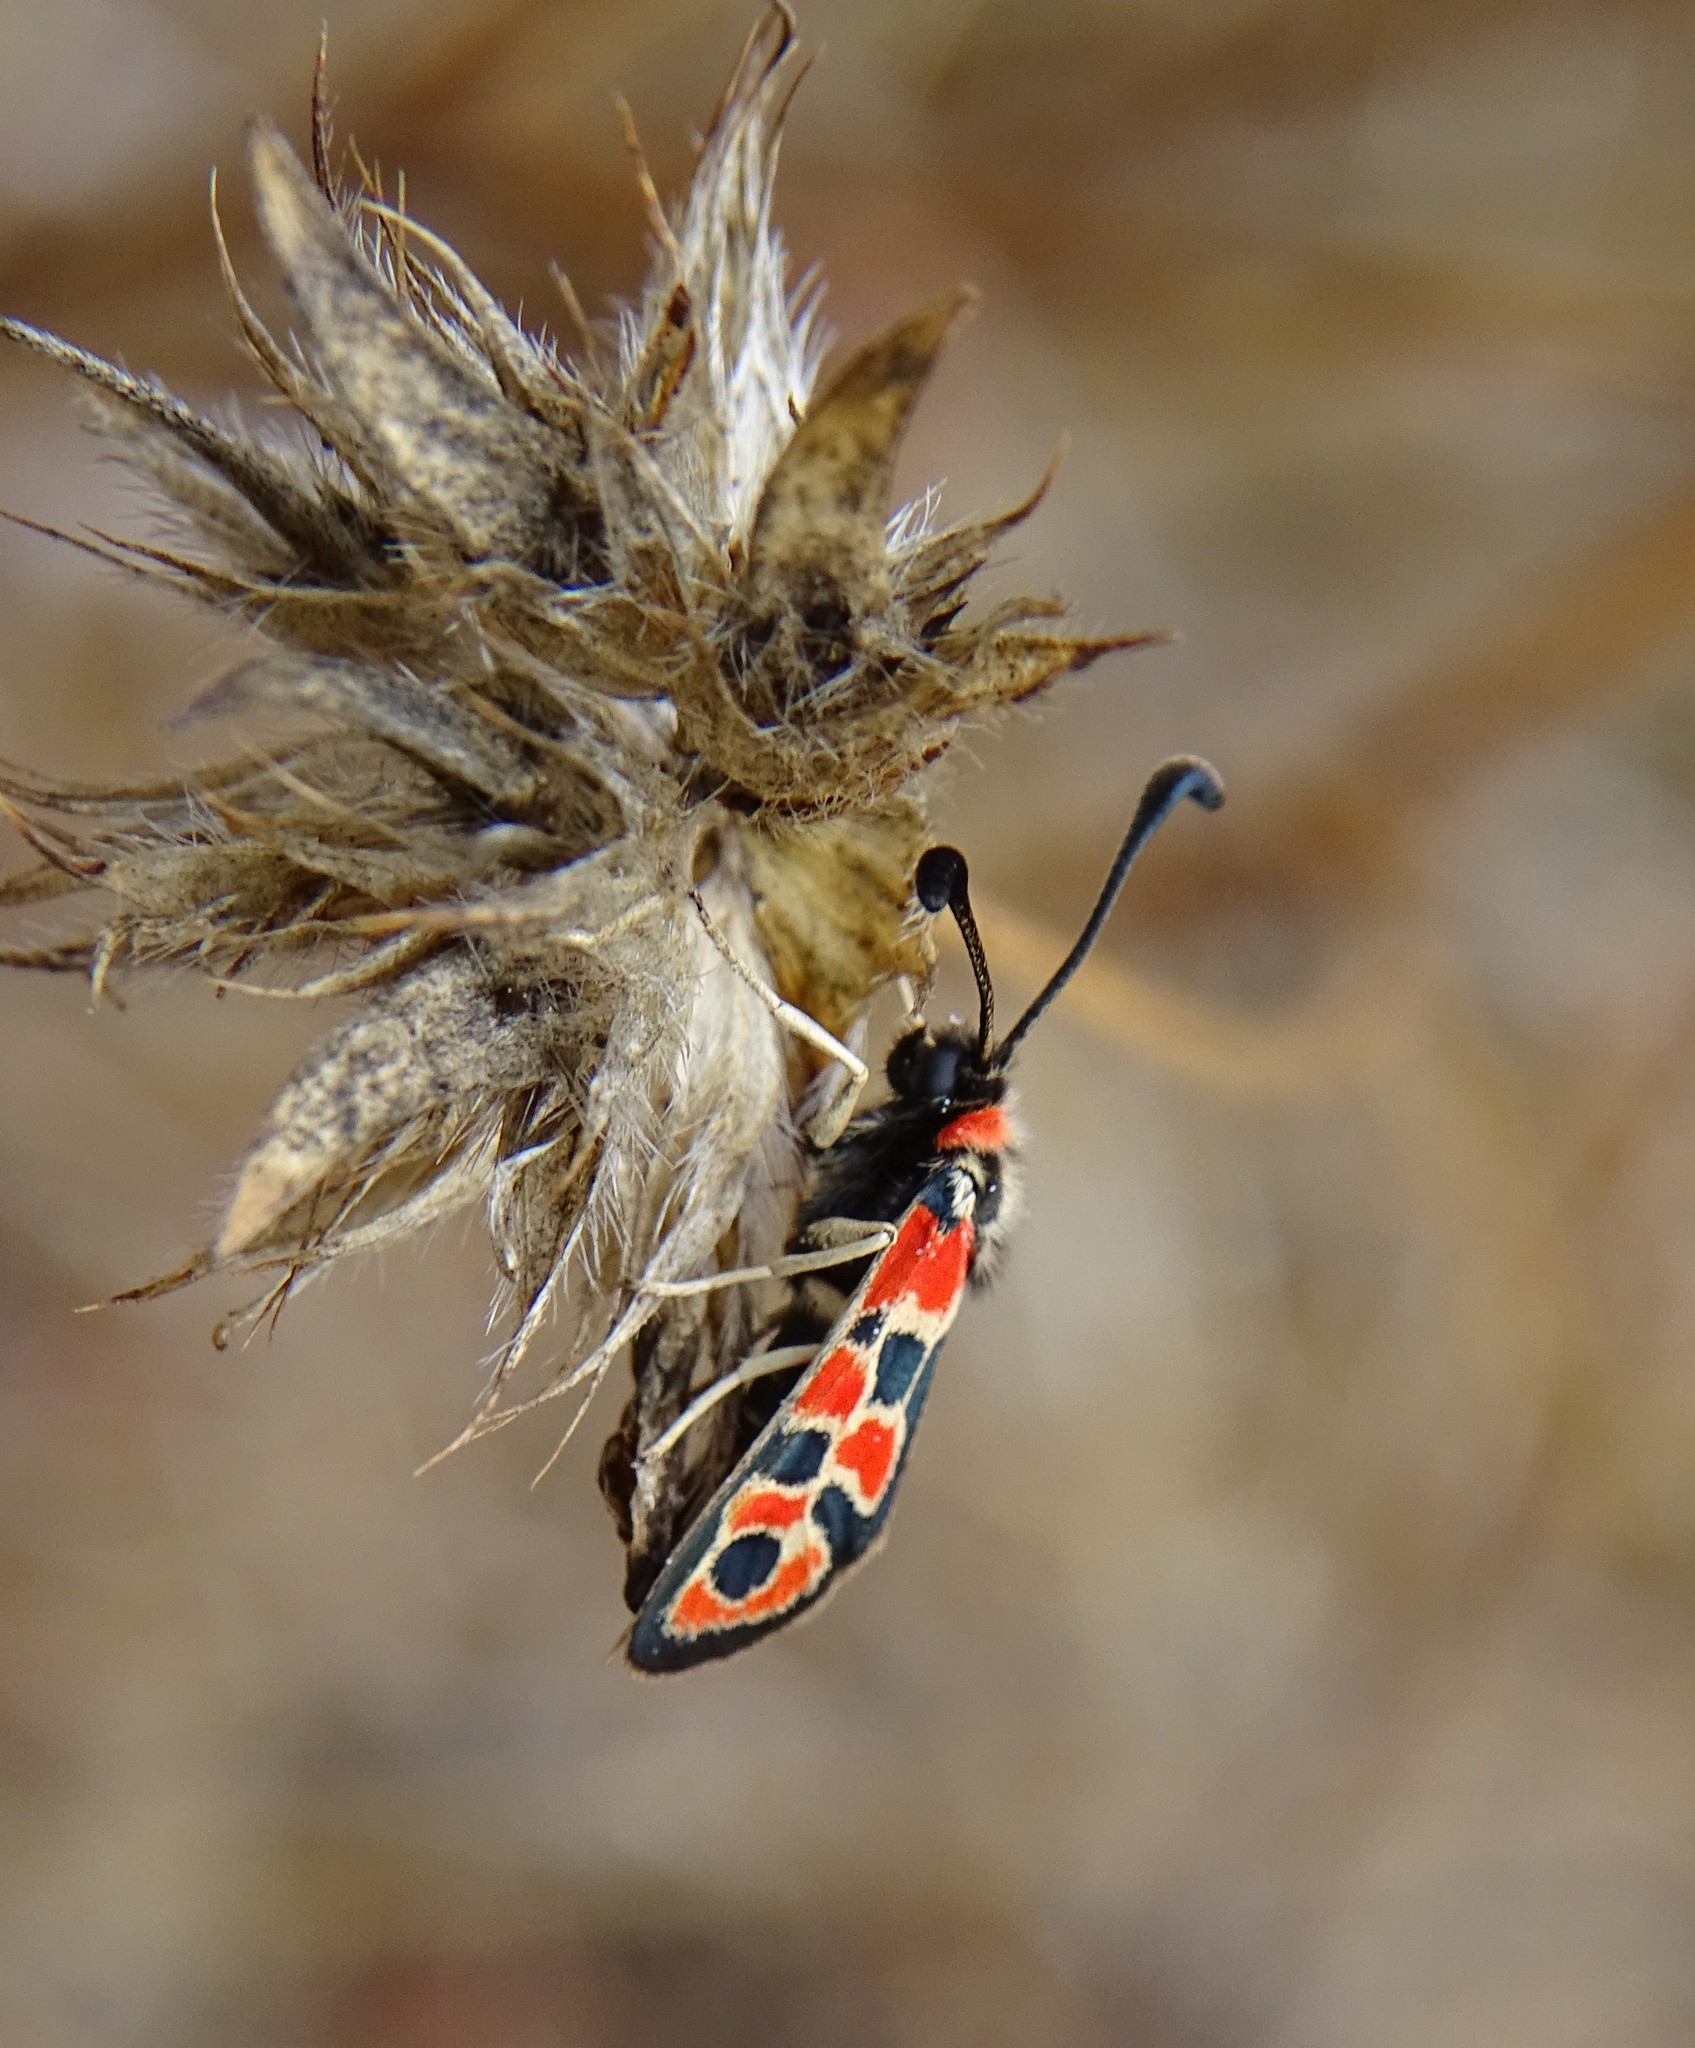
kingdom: Animalia
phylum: Arthropoda
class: Insecta
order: Lepidoptera
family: Zygaenidae
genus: Zygaena
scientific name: Zygaena fausta
